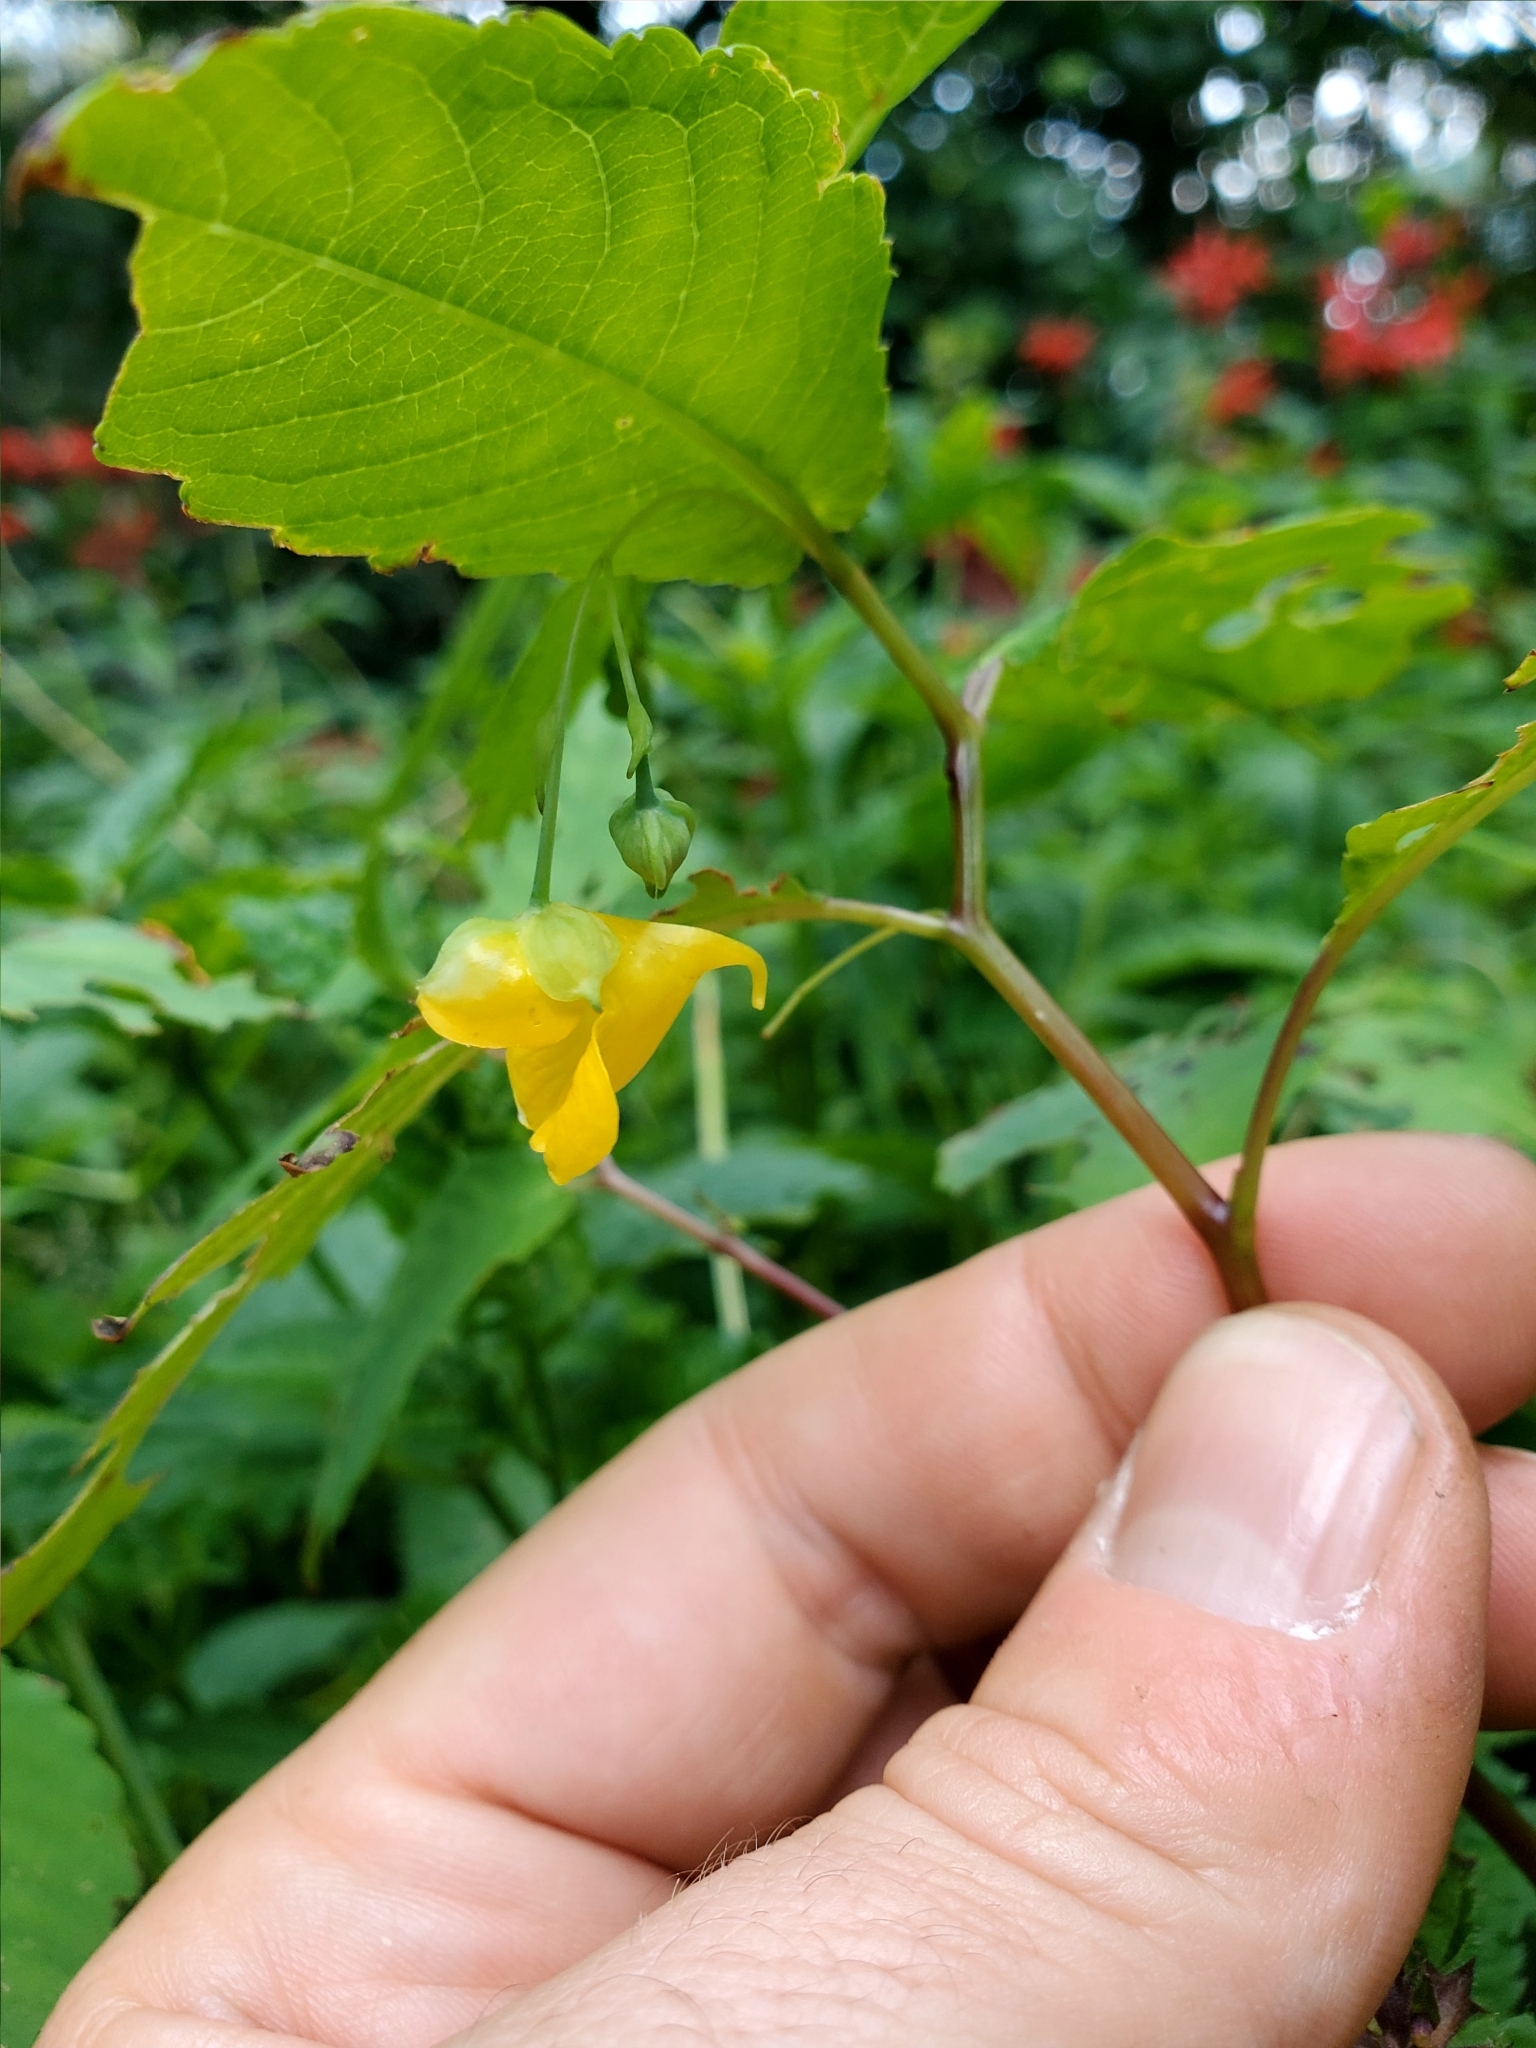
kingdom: Plantae
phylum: Tracheophyta
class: Magnoliopsida
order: Ericales
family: Balsaminaceae
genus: Impatiens
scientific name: Impatiens pallida
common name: Pale snapweed
